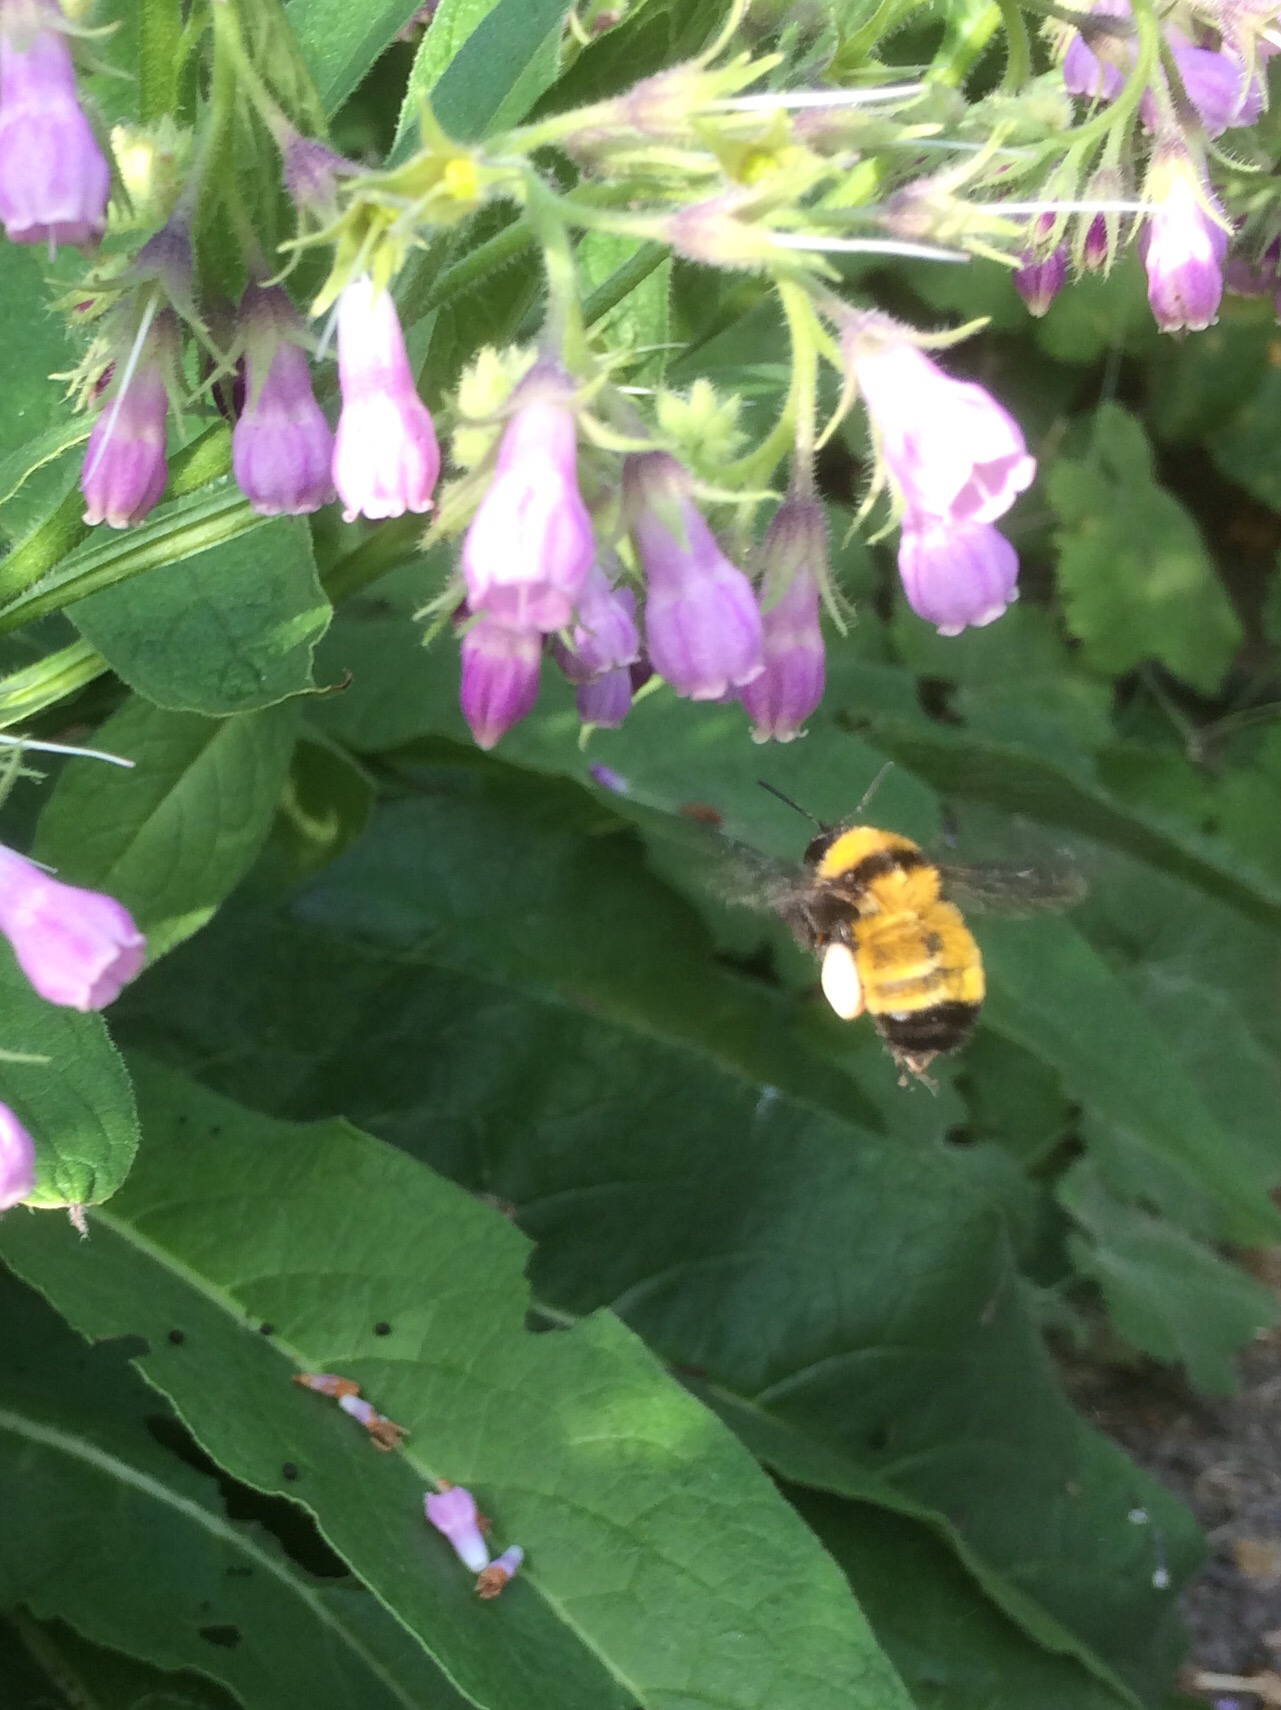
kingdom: Animalia
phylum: Arthropoda
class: Insecta
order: Hymenoptera
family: Apidae
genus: Bombus
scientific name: Bombus sonorus
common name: Sonoran bumble bee
